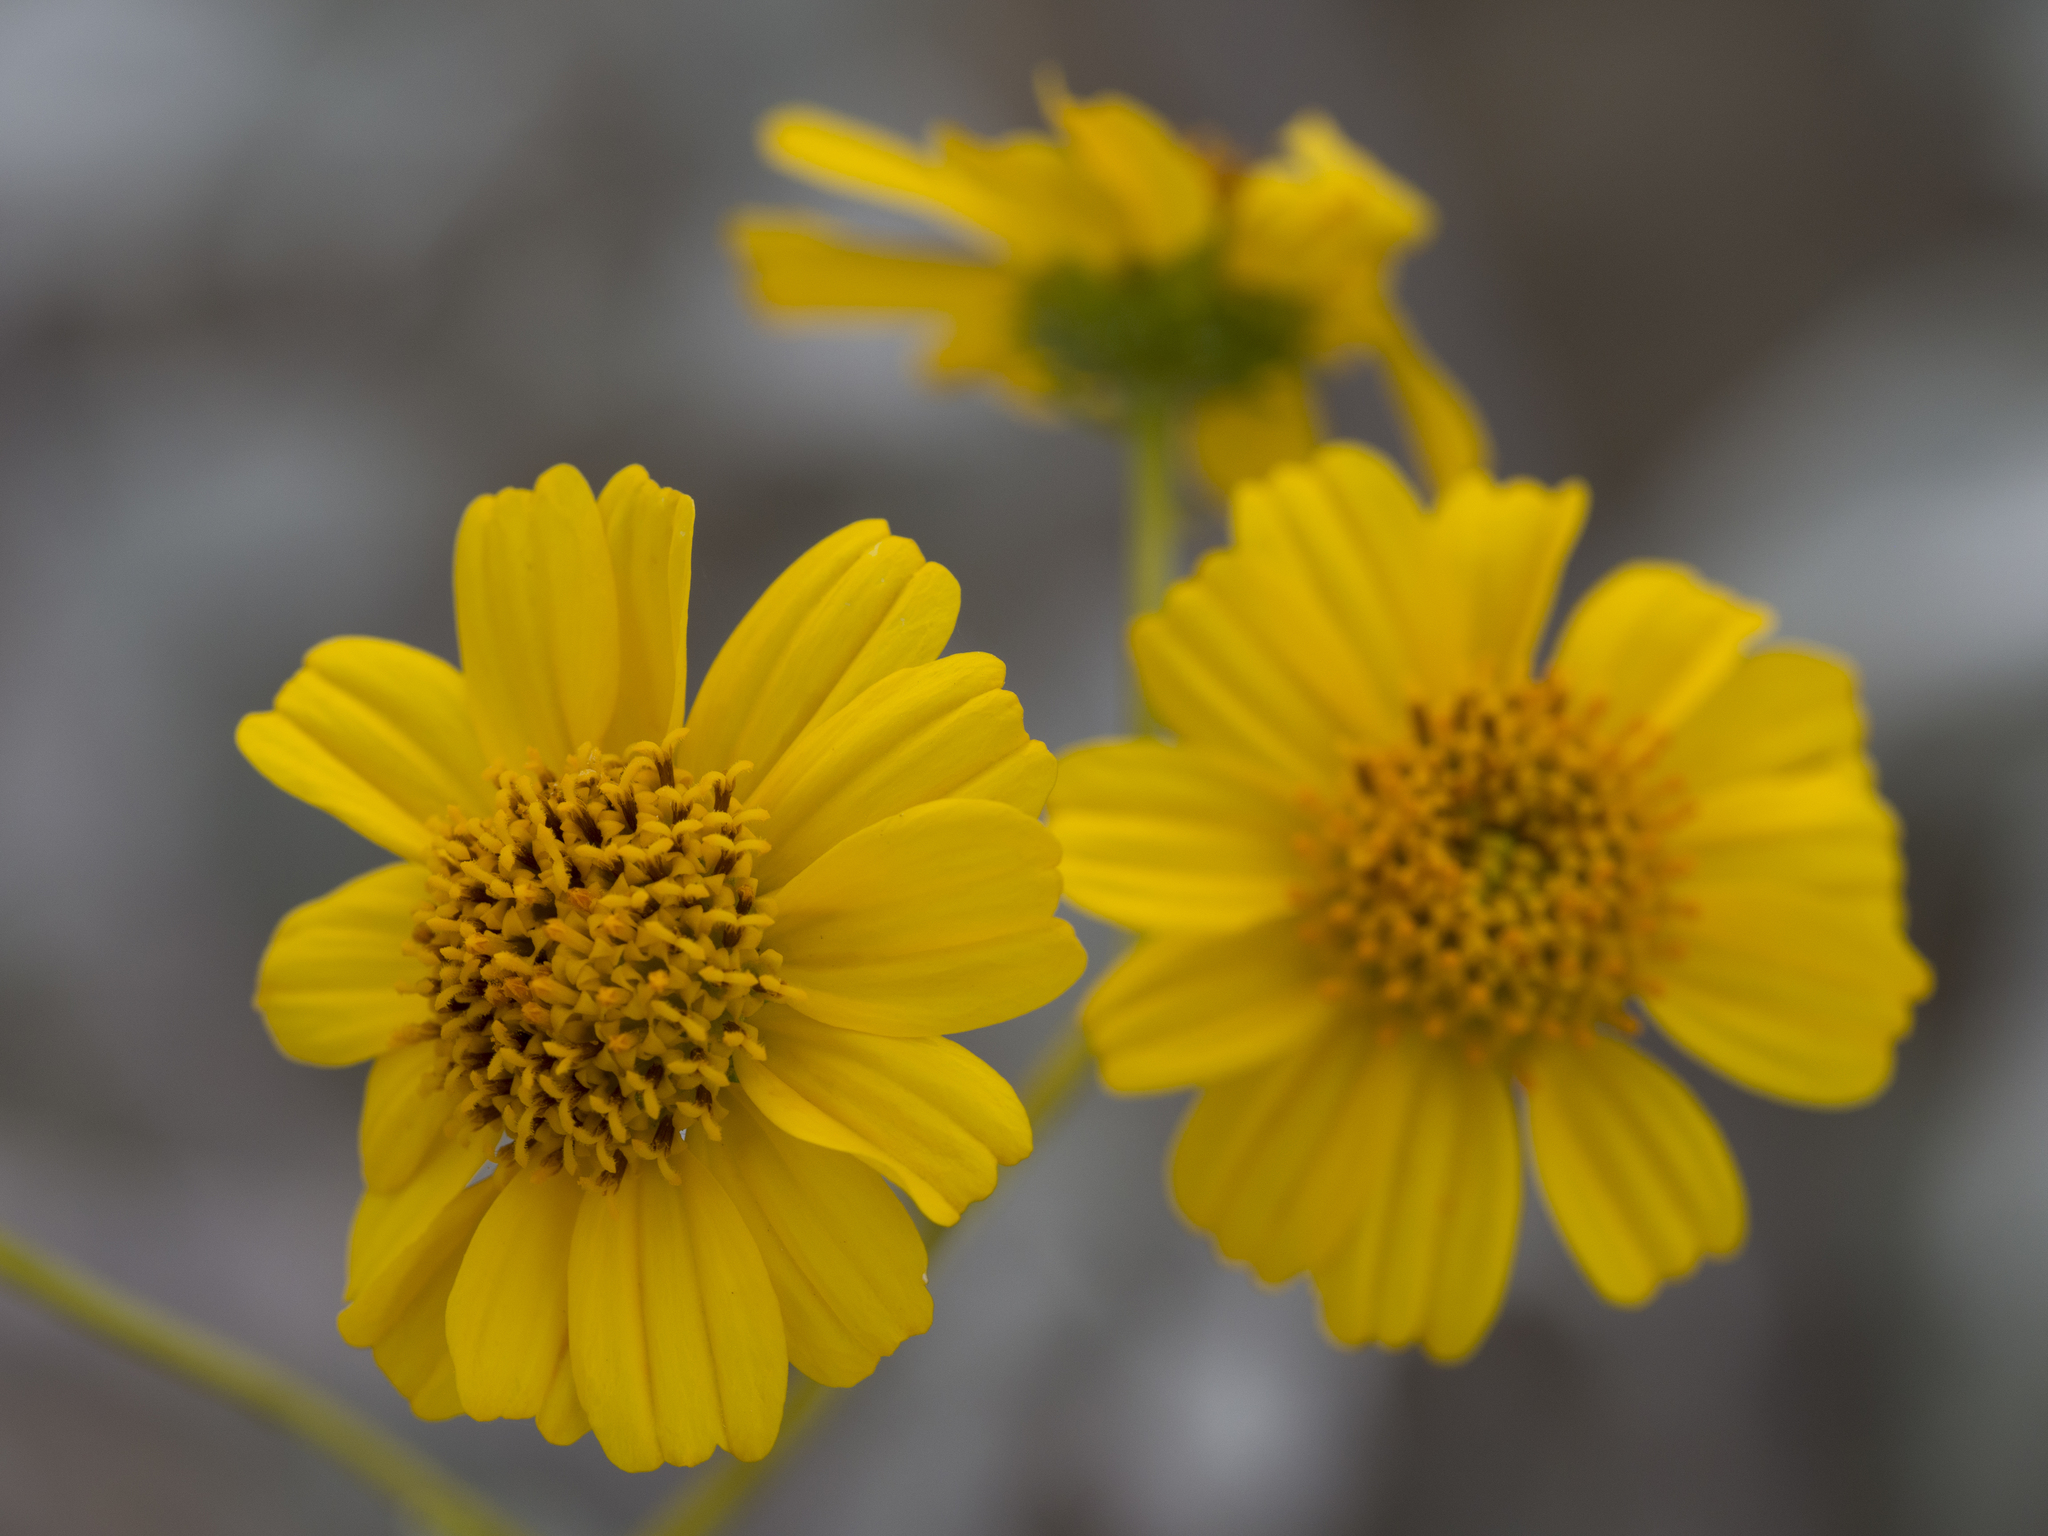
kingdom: Plantae
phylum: Tracheophyta
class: Magnoliopsida
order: Asterales
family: Asteraceae
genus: Encelia
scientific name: Encelia farinosa
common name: Brittlebush
